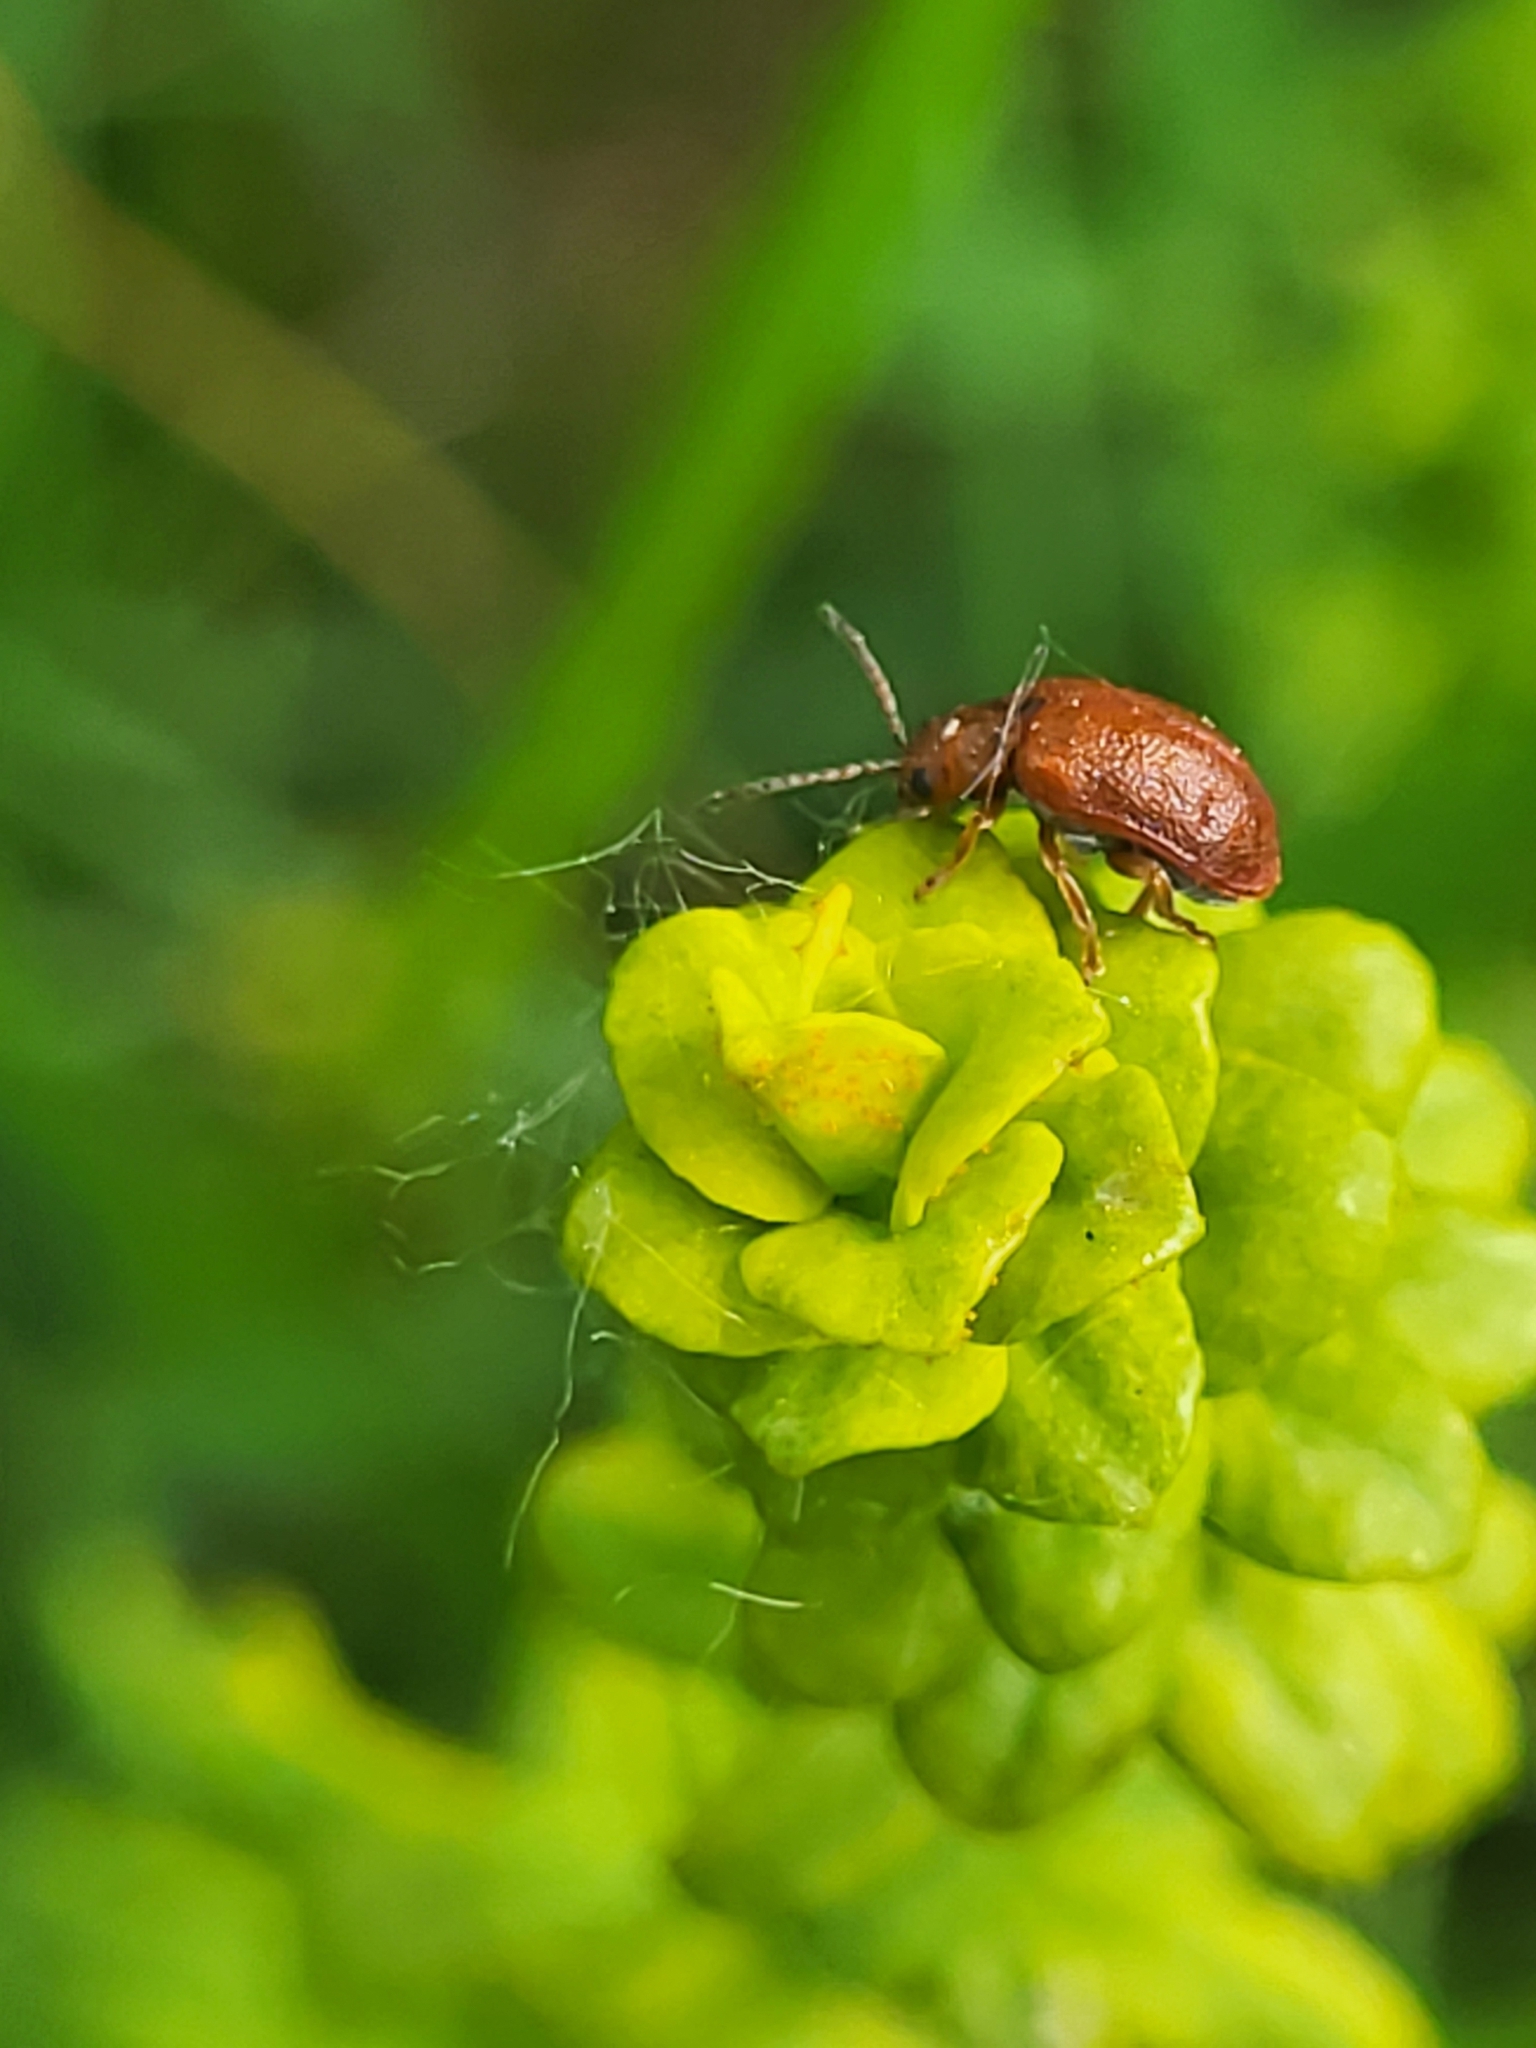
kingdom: Animalia
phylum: Arthropoda
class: Insecta
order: Coleoptera
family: Chrysomelidae
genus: Lochmaea
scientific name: Lochmaea crataegi
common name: Hawthorn leaf beetle
